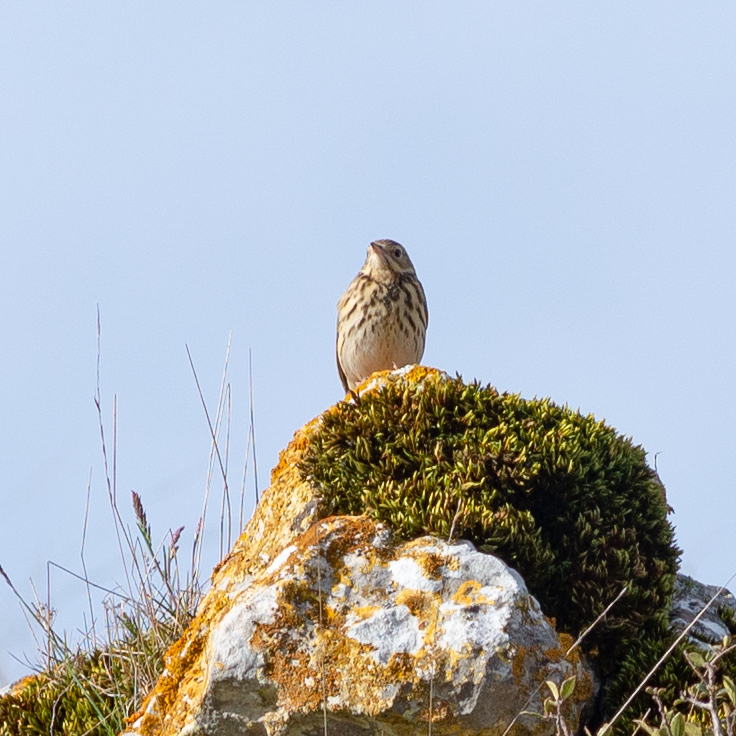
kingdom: Animalia
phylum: Chordata
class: Aves
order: Passeriformes
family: Motacillidae
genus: Anthus
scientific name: Anthus trivialis
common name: Tree pipit
